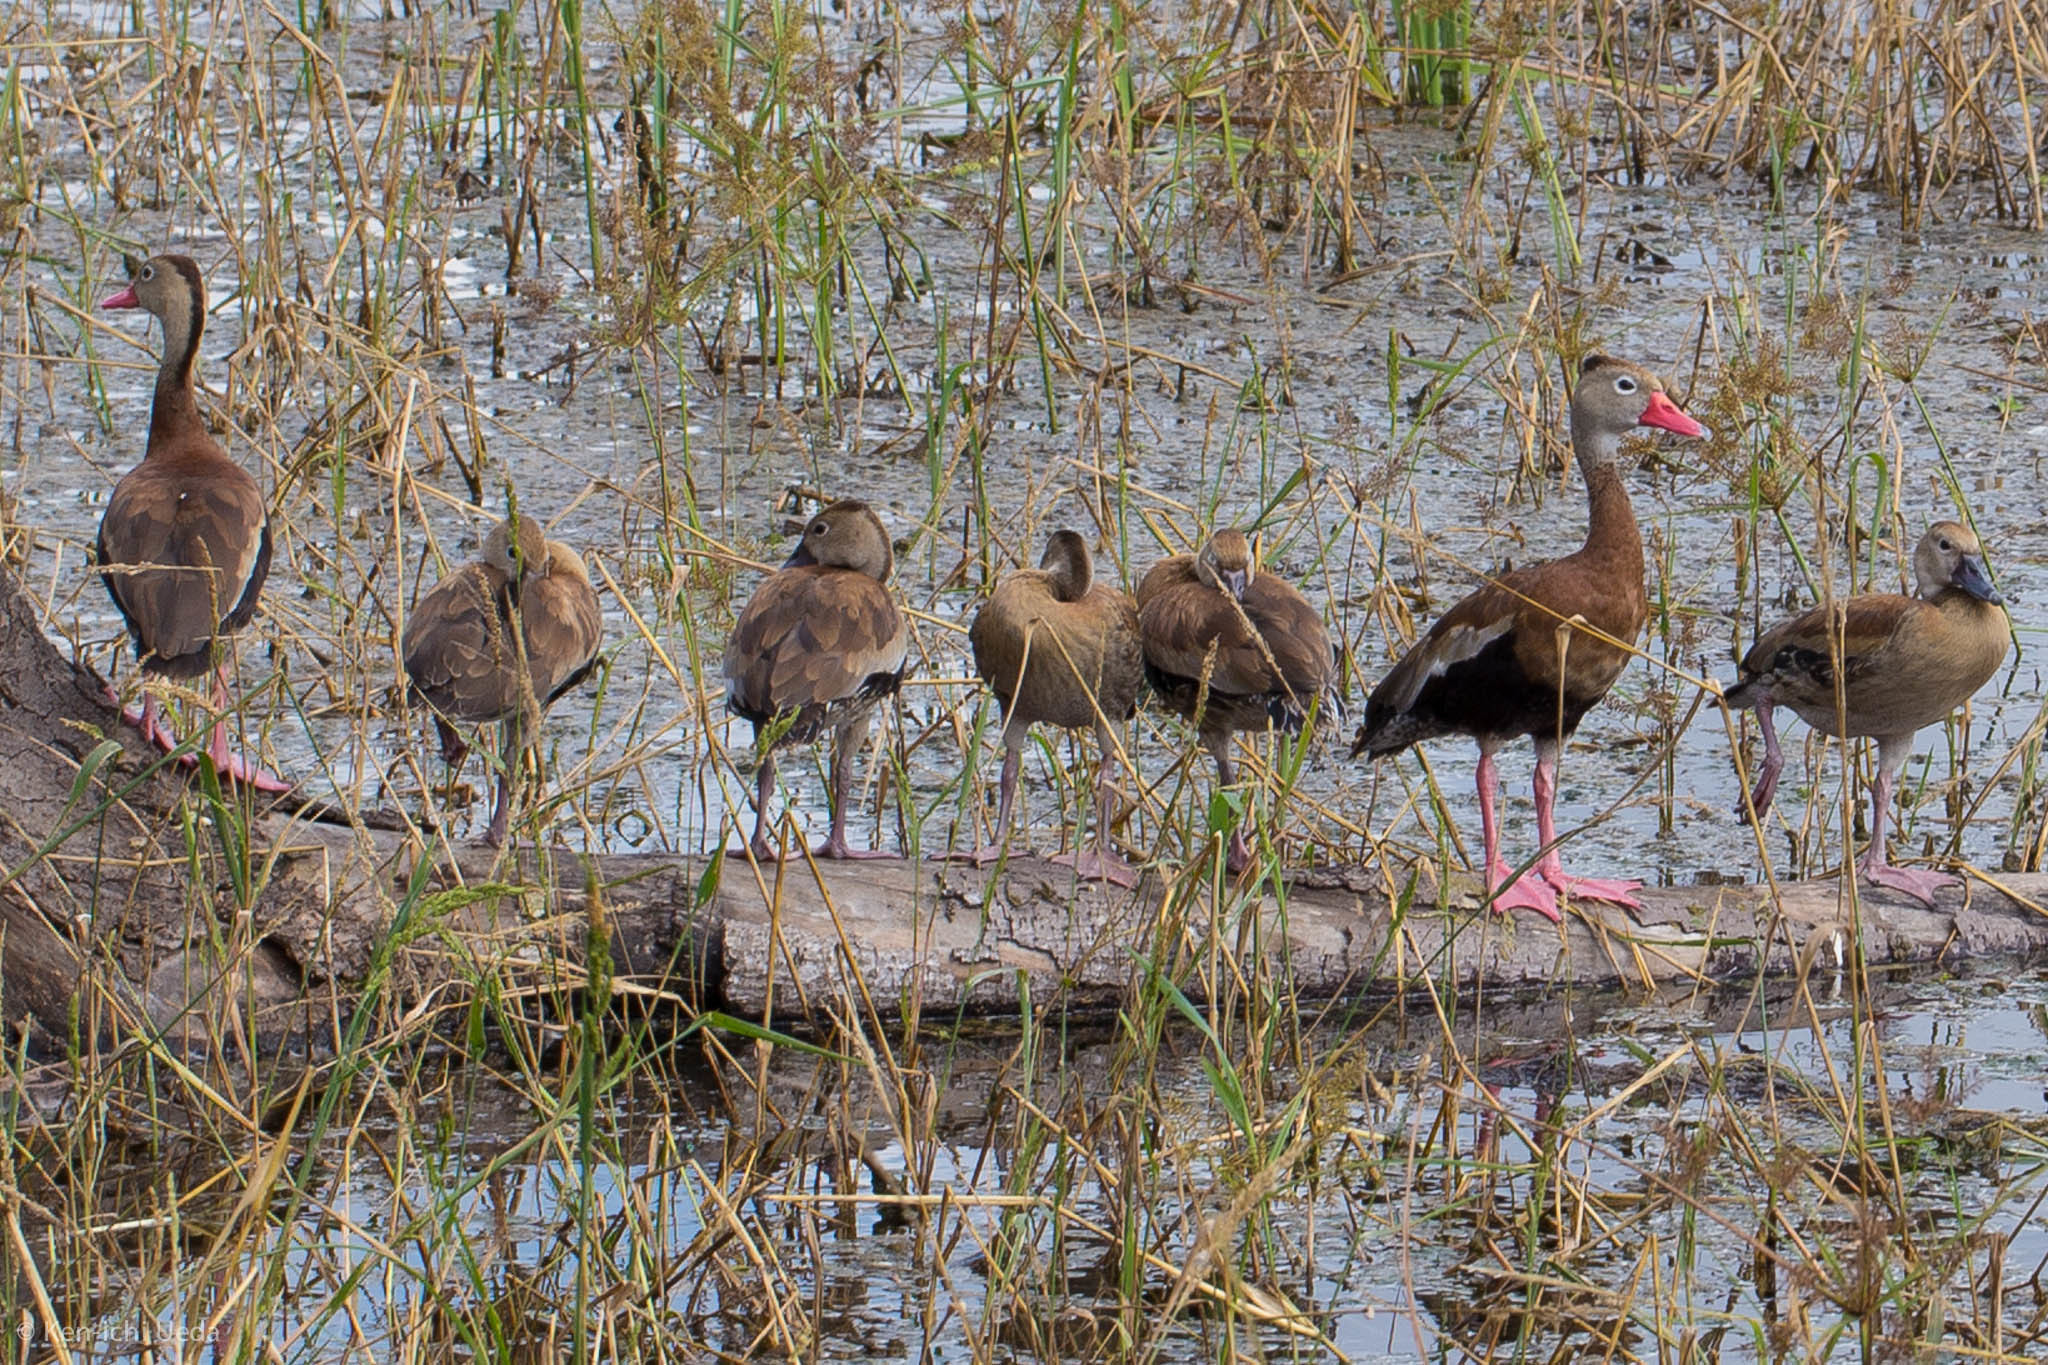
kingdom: Animalia
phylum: Chordata
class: Aves
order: Anseriformes
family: Anatidae
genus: Dendrocygna
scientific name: Dendrocygna autumnalis
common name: Black-bellied whistling duck
